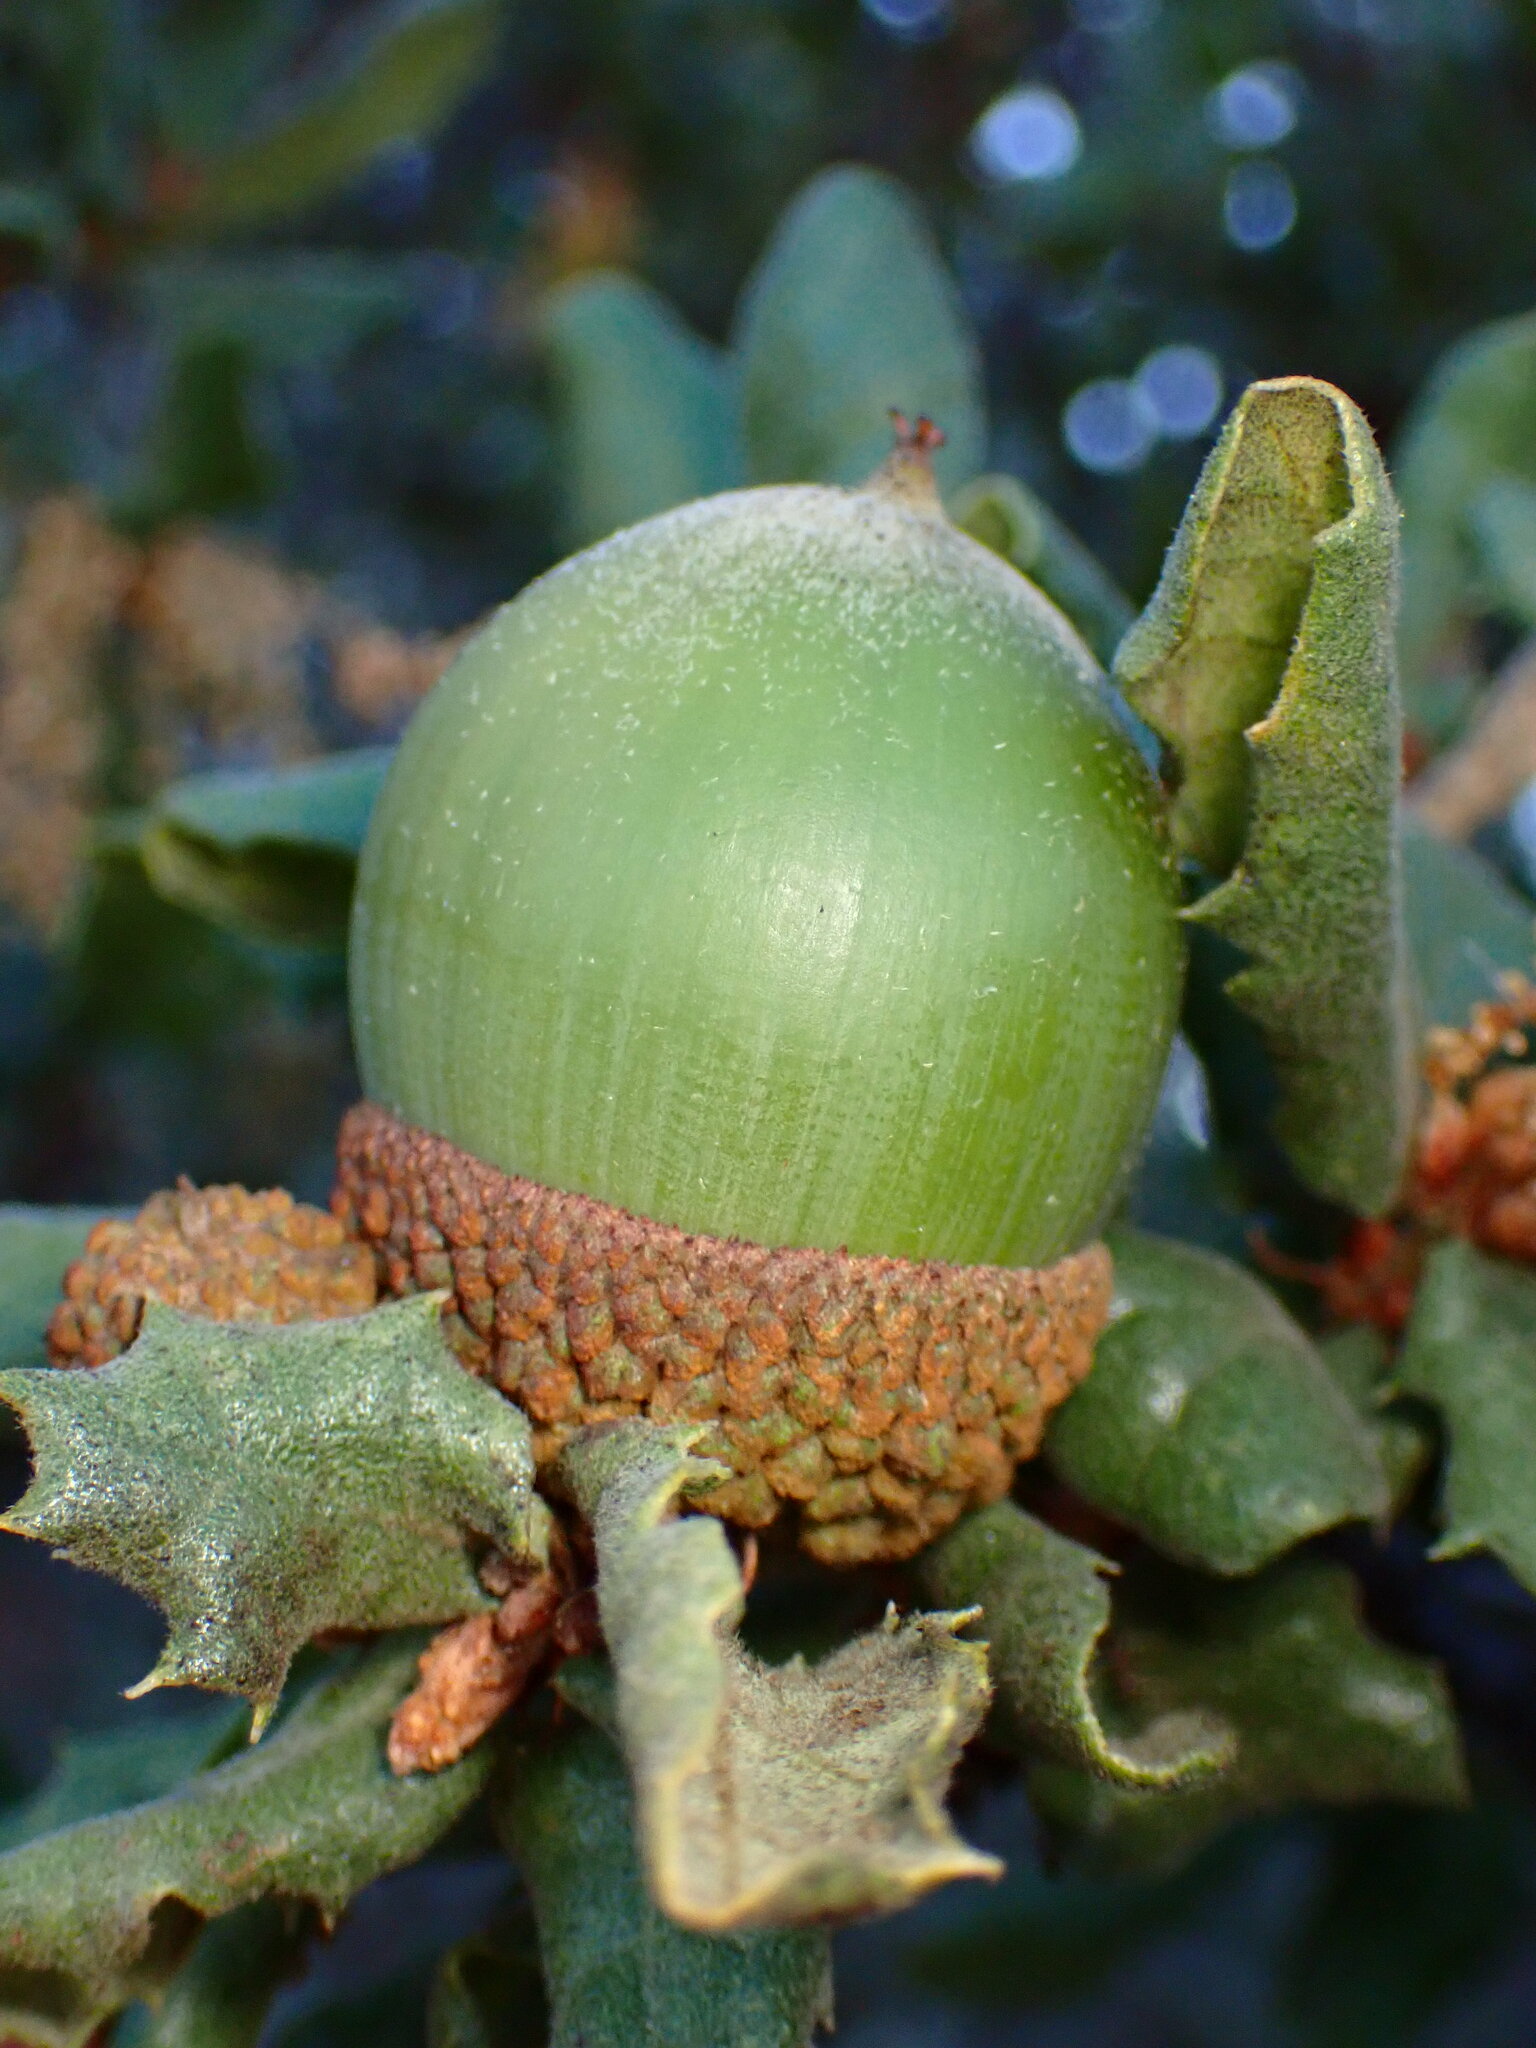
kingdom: Plantae
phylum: Tracheophyta
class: Magnoliopsida
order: Fagales
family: Fagaceae
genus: Quercus
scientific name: Quercus durata
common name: Leather oak
